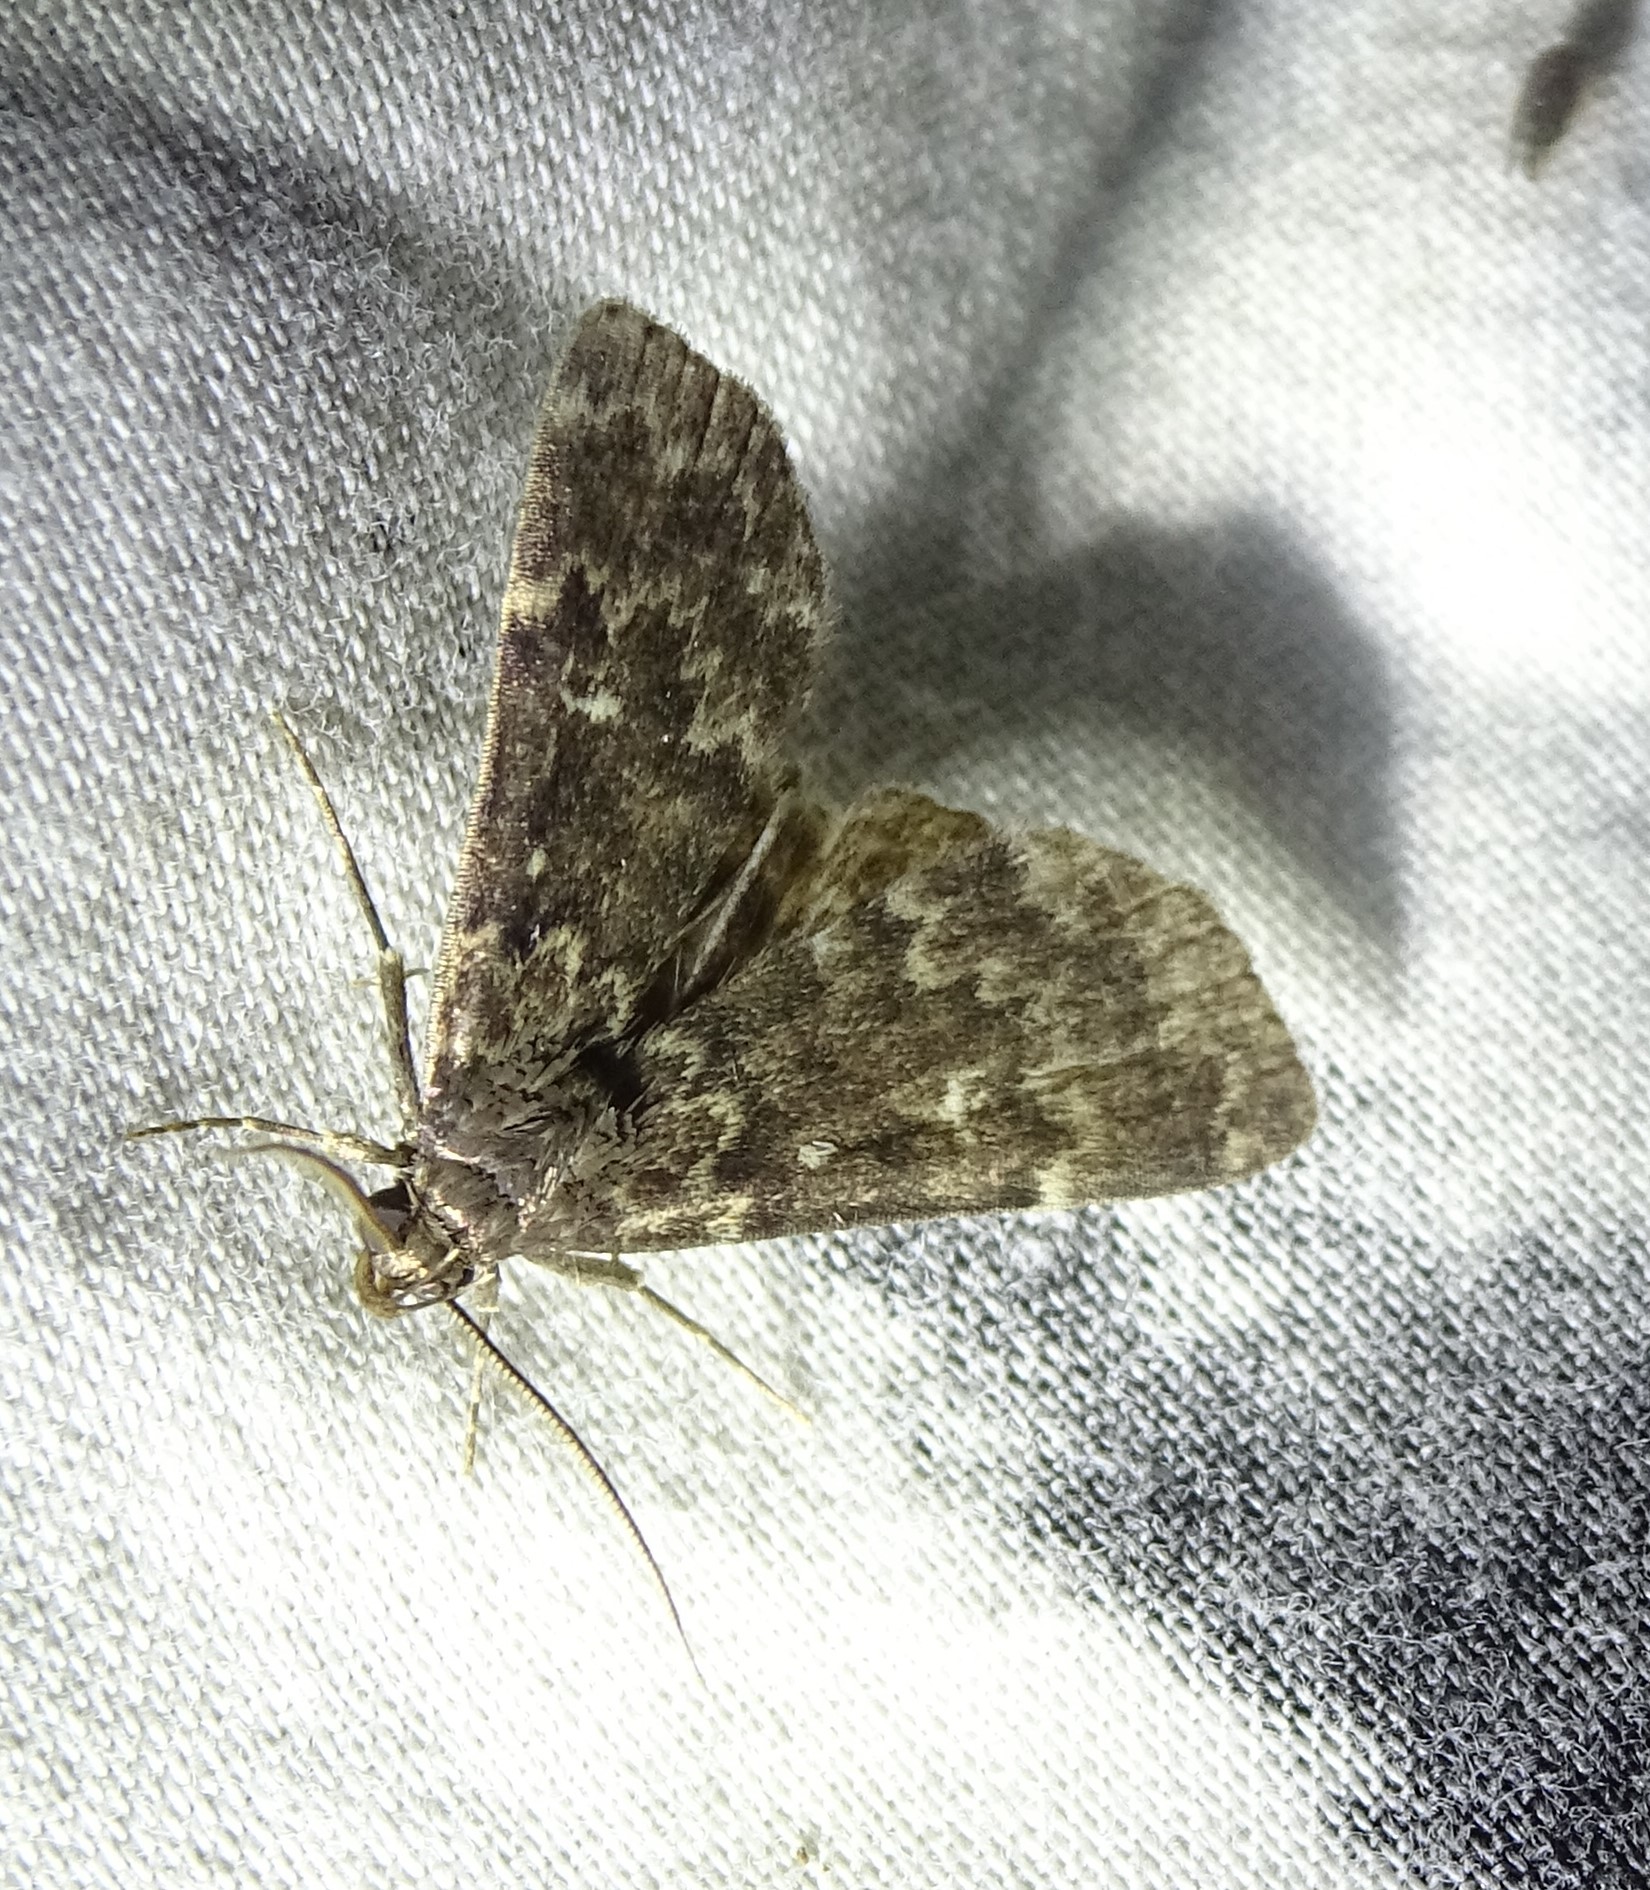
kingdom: Animalia
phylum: Arthropoda
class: Insecta
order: Lepidoptera
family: Erebidae
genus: Idia
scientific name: Idia lubricalis
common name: Twin-striped tabby
